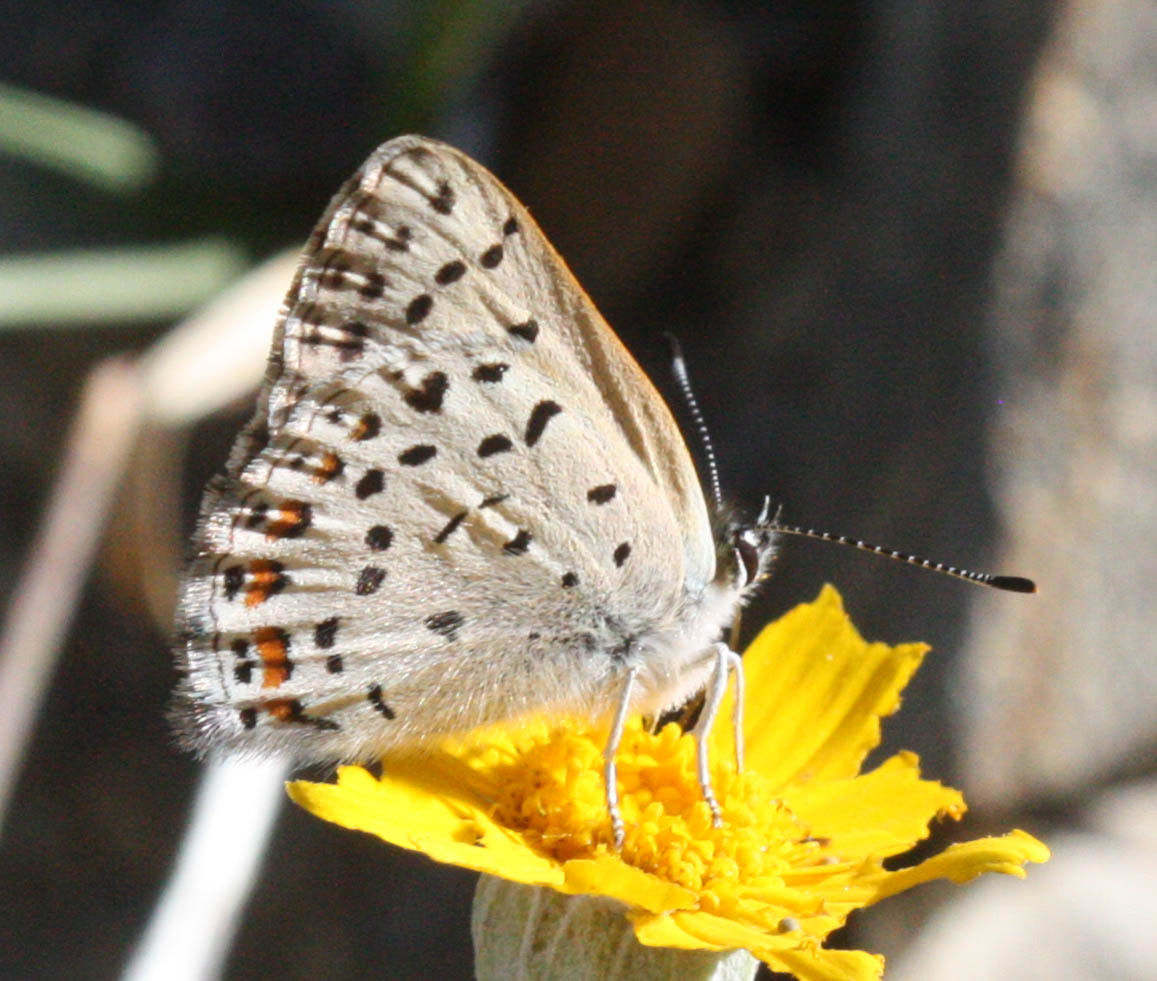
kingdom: Animalia
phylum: Arthropoda
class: Insecta
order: Lepidoptera
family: Lycaenidae
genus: Tharsalea
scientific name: Tharsalea gorgon
